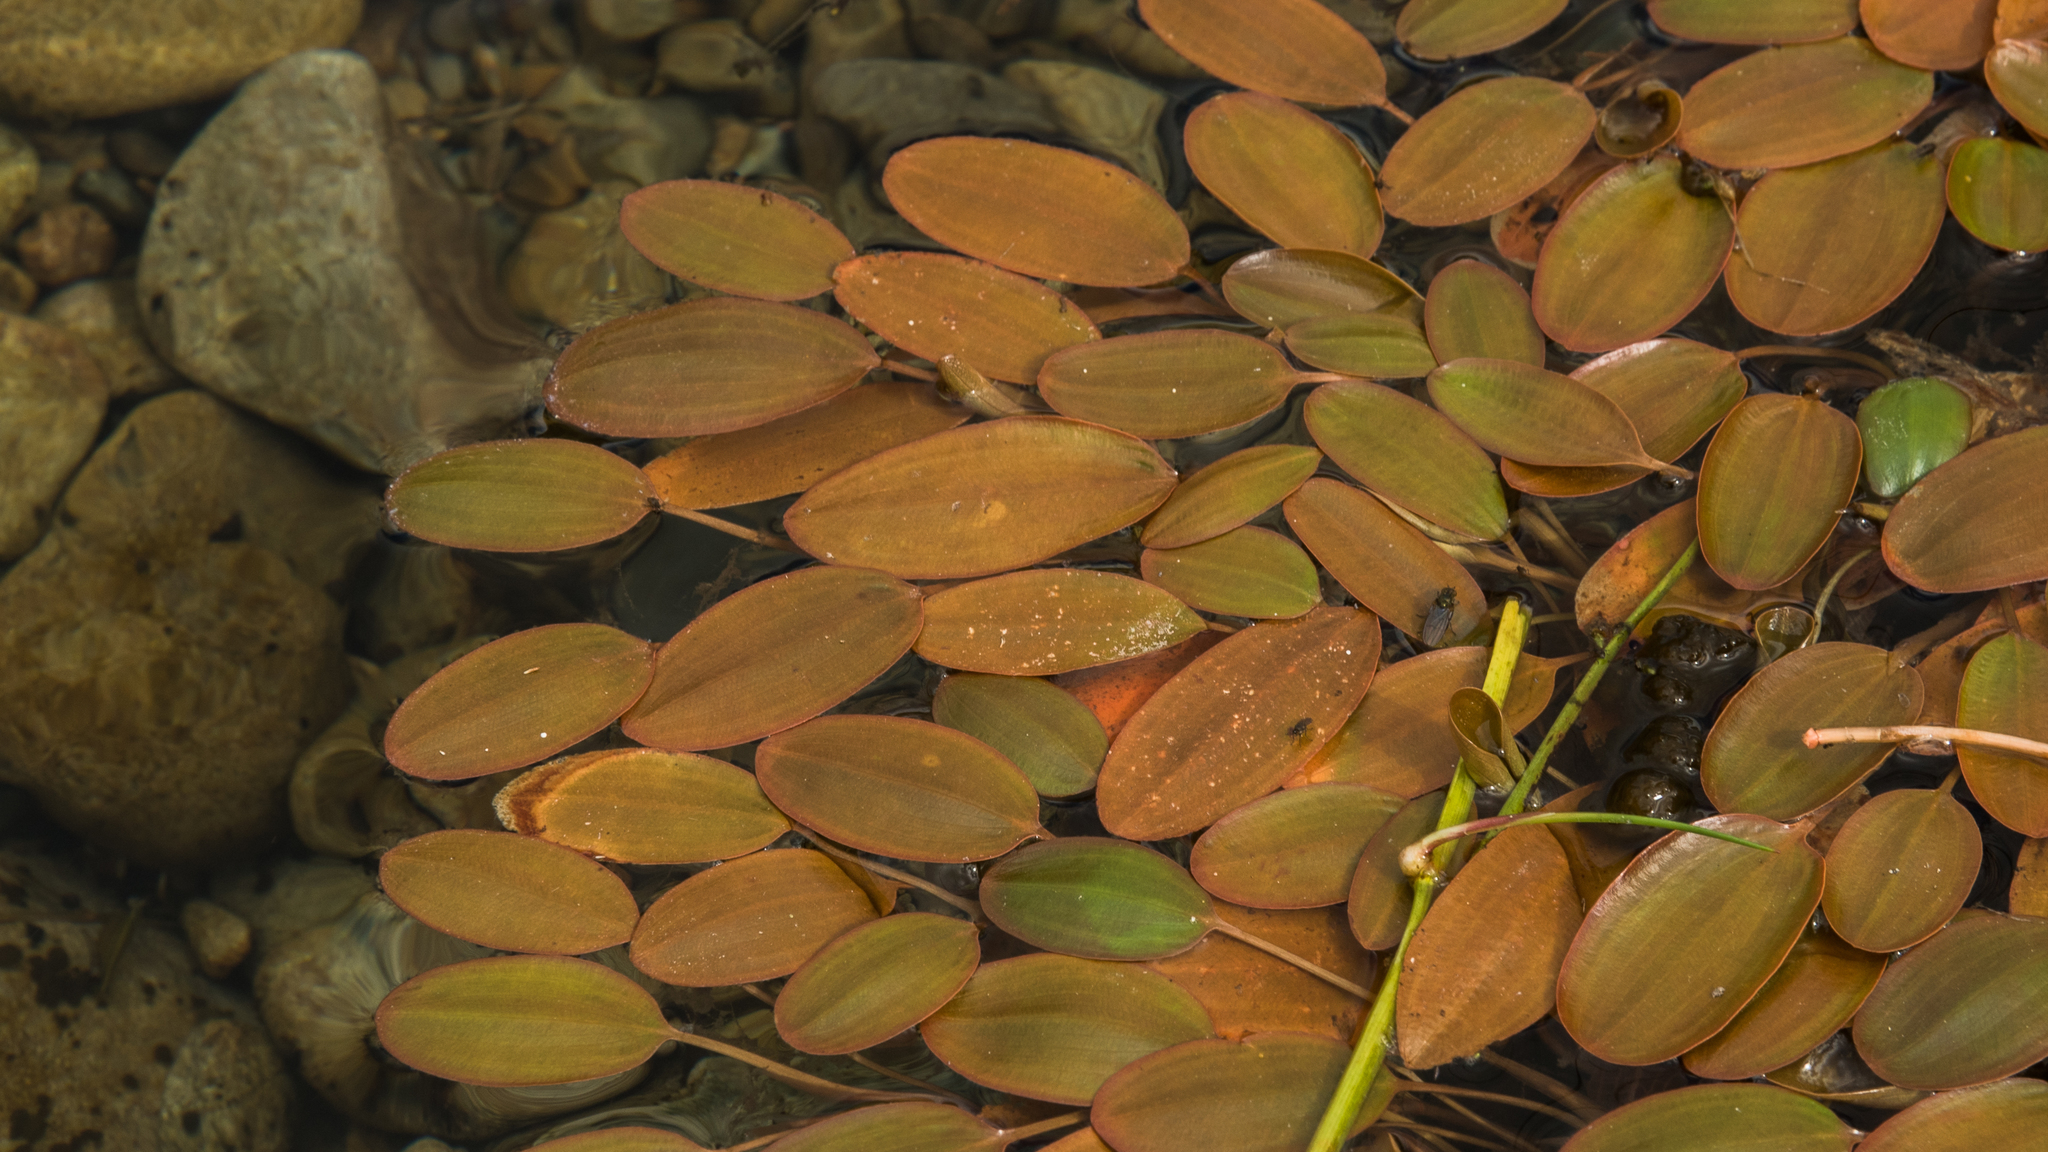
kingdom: Plantae
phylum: Tracheophyta
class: Liliopsida
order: Alismatales
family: Potamogetonaceae
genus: Potamogeton
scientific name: Potamogeton cheesemanii
